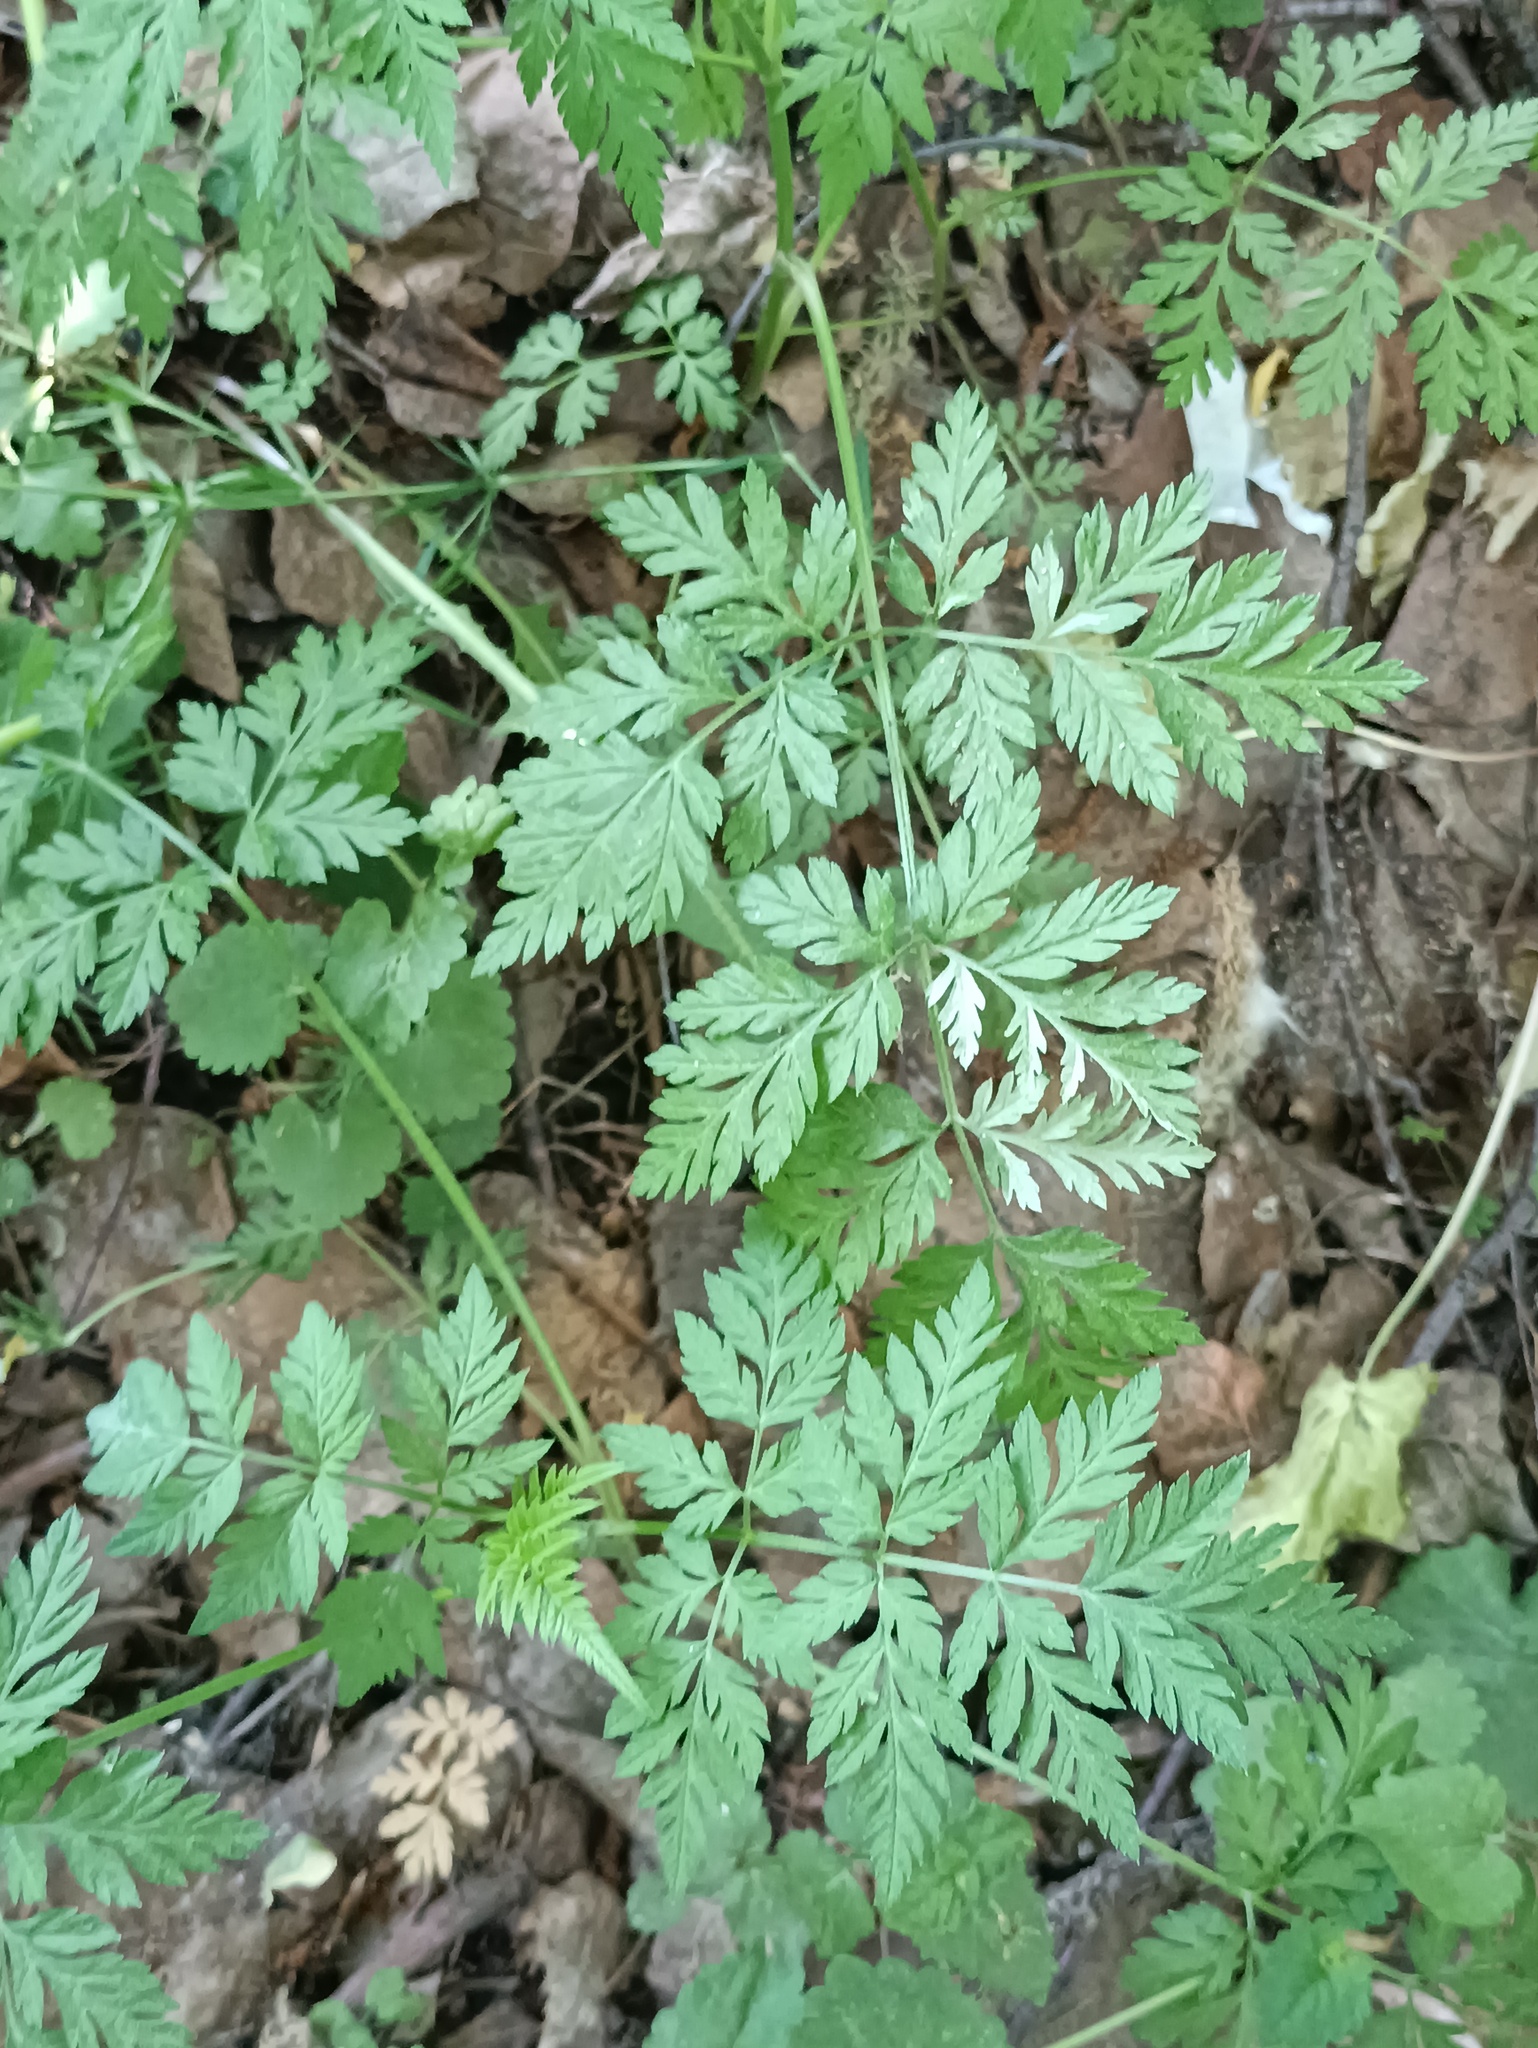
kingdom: Plantae
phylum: Tracheophyta
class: Magnoliopsida
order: Apiales
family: Apiaceae
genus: Torilis
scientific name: Torilis japonica
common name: Upright hedge-parsley
